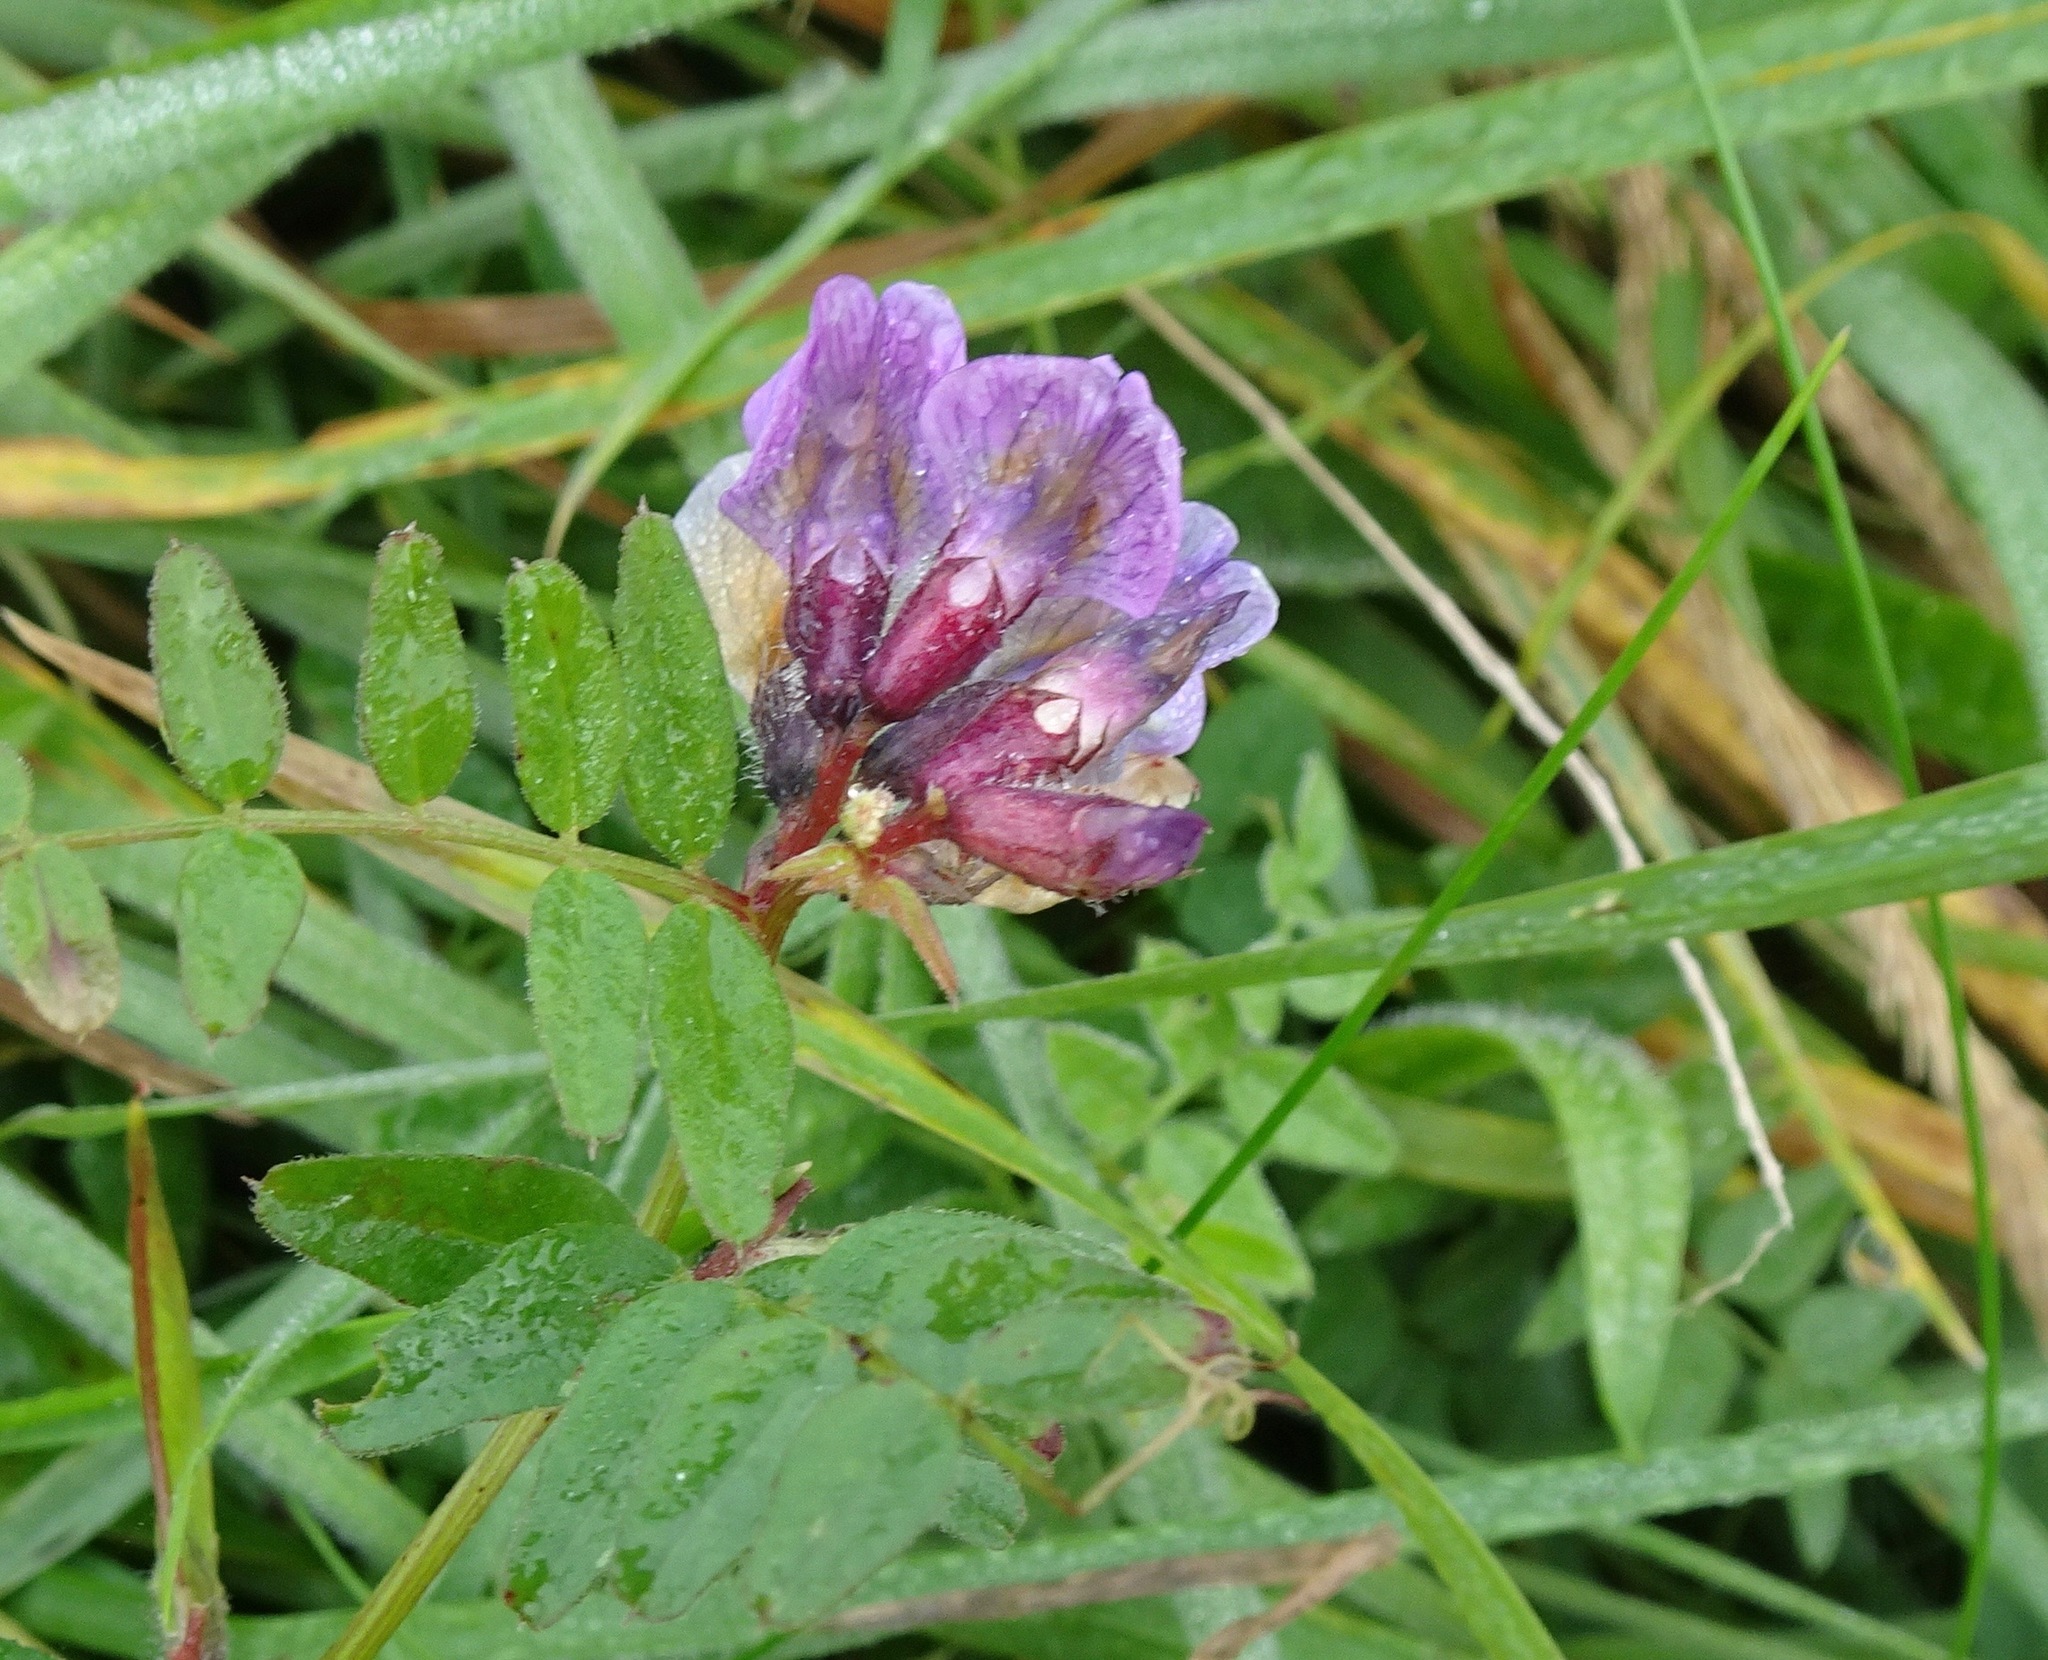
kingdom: Plantae
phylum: Tracheophyta
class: Magnoliopsida
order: Fabales
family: Fabaceae
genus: Vicia
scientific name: Vicia sepium
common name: Bush vetch
